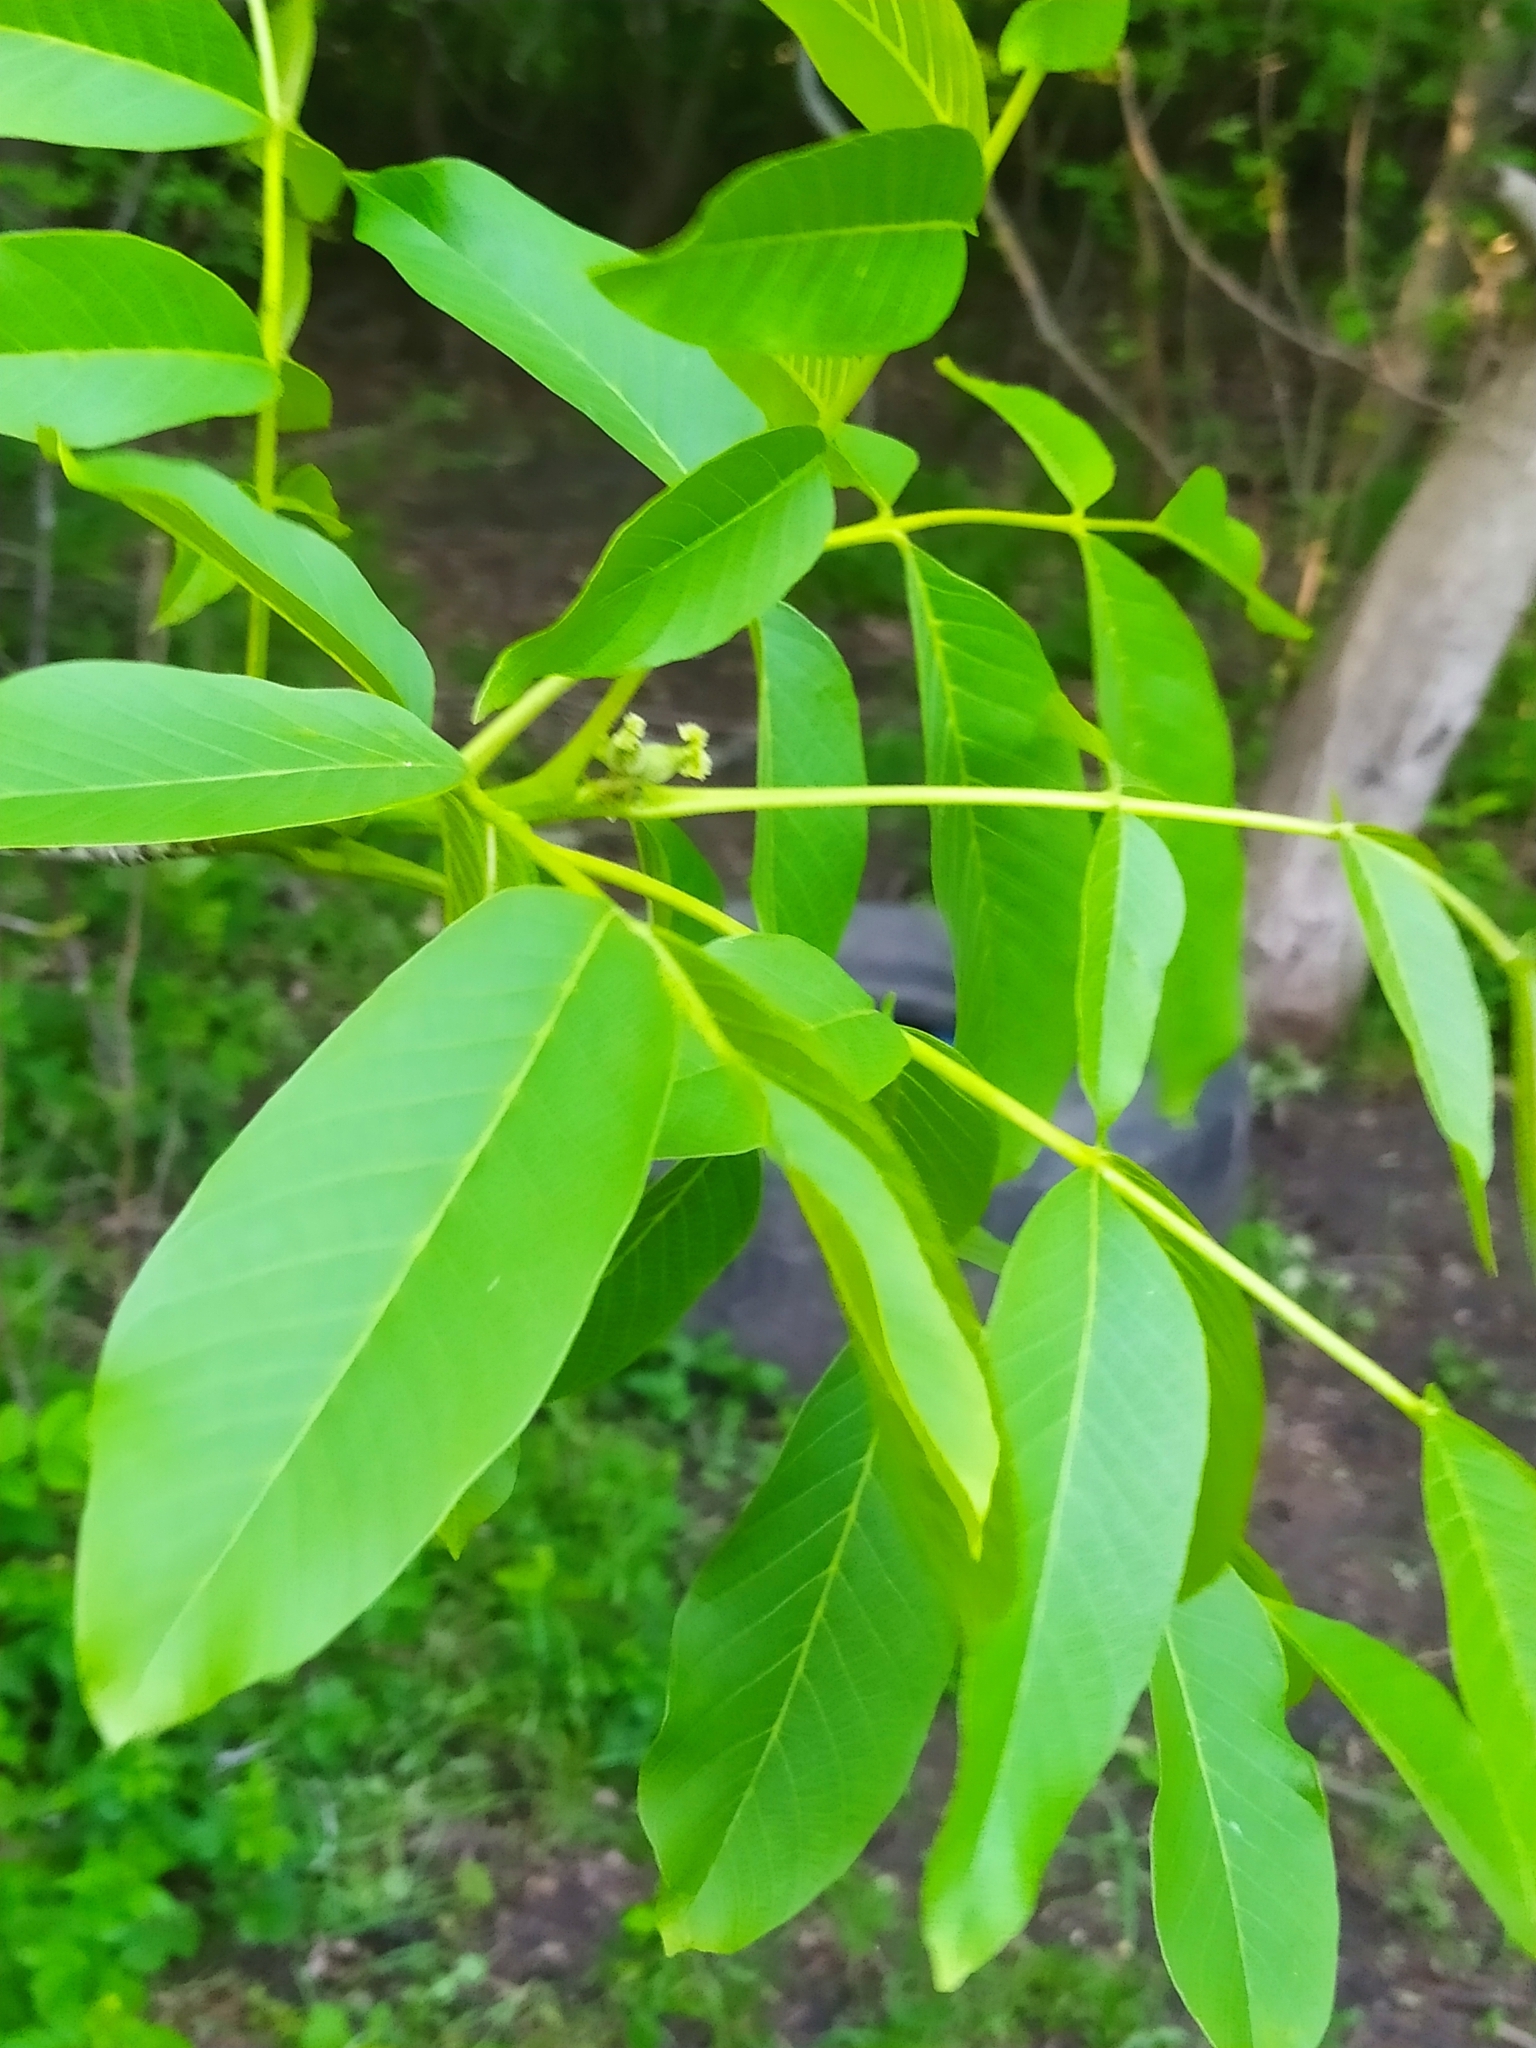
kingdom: Plantae
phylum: Tracheophyta
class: Magnoliopsida
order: Fagales
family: Juglandaceae
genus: Juglans
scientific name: Juglans regia
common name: Walnut
